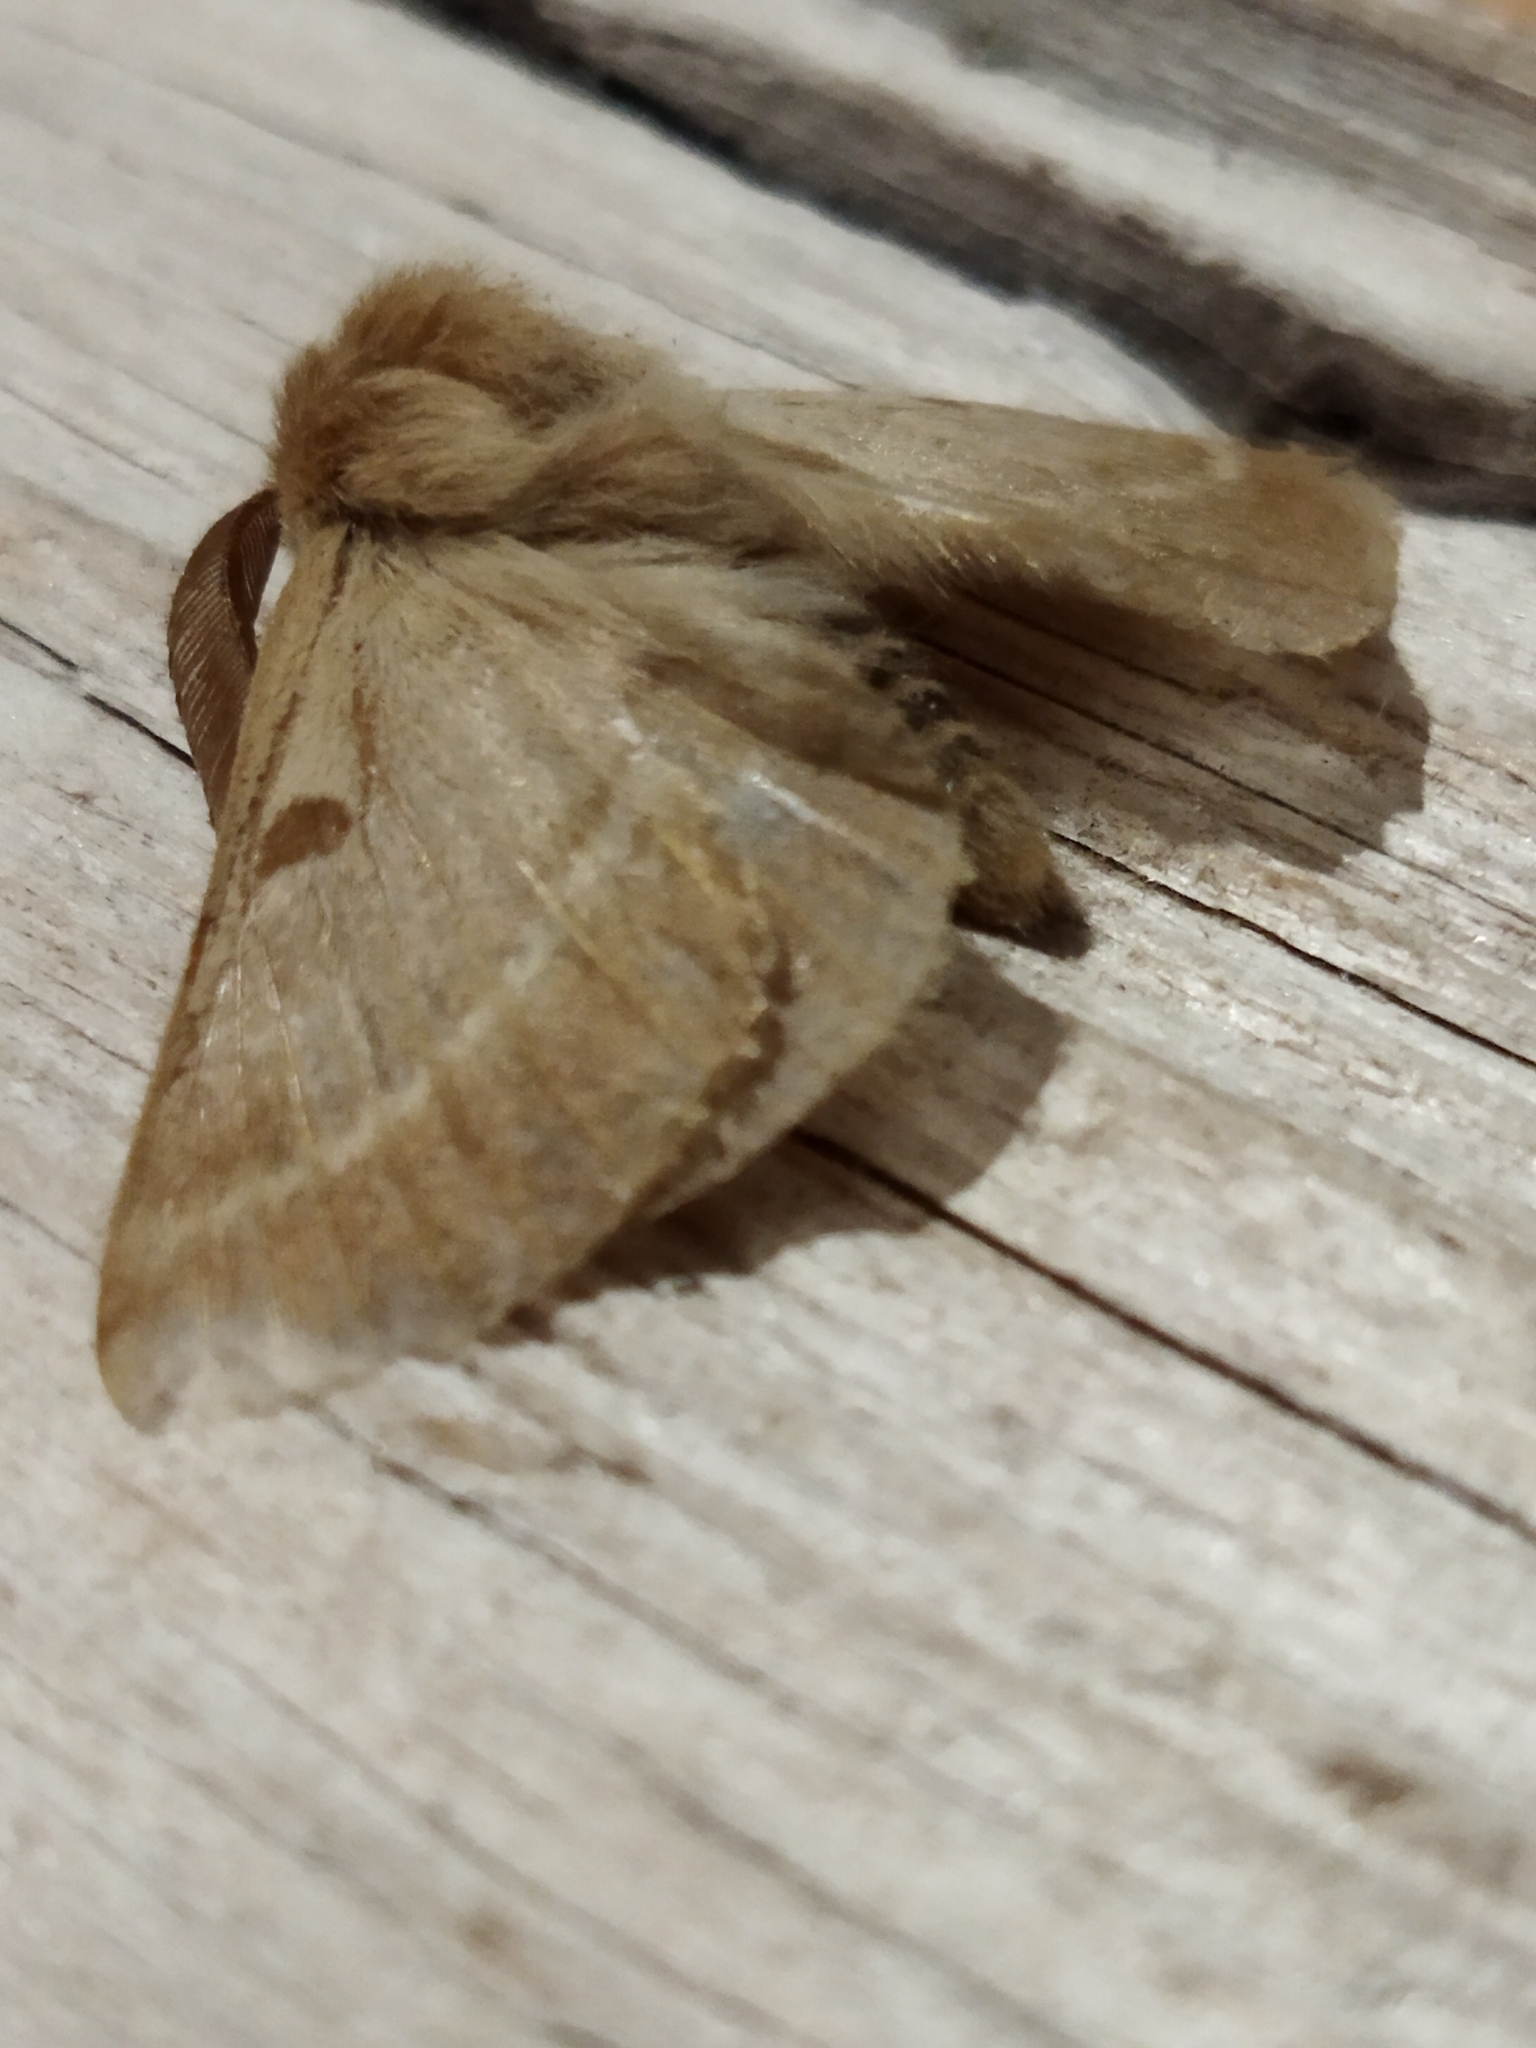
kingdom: Animalia
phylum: Arthropoda
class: Insecta
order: Lepidoptera
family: Brahmaeidae
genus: Lemonia
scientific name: Lemonia balcanica
